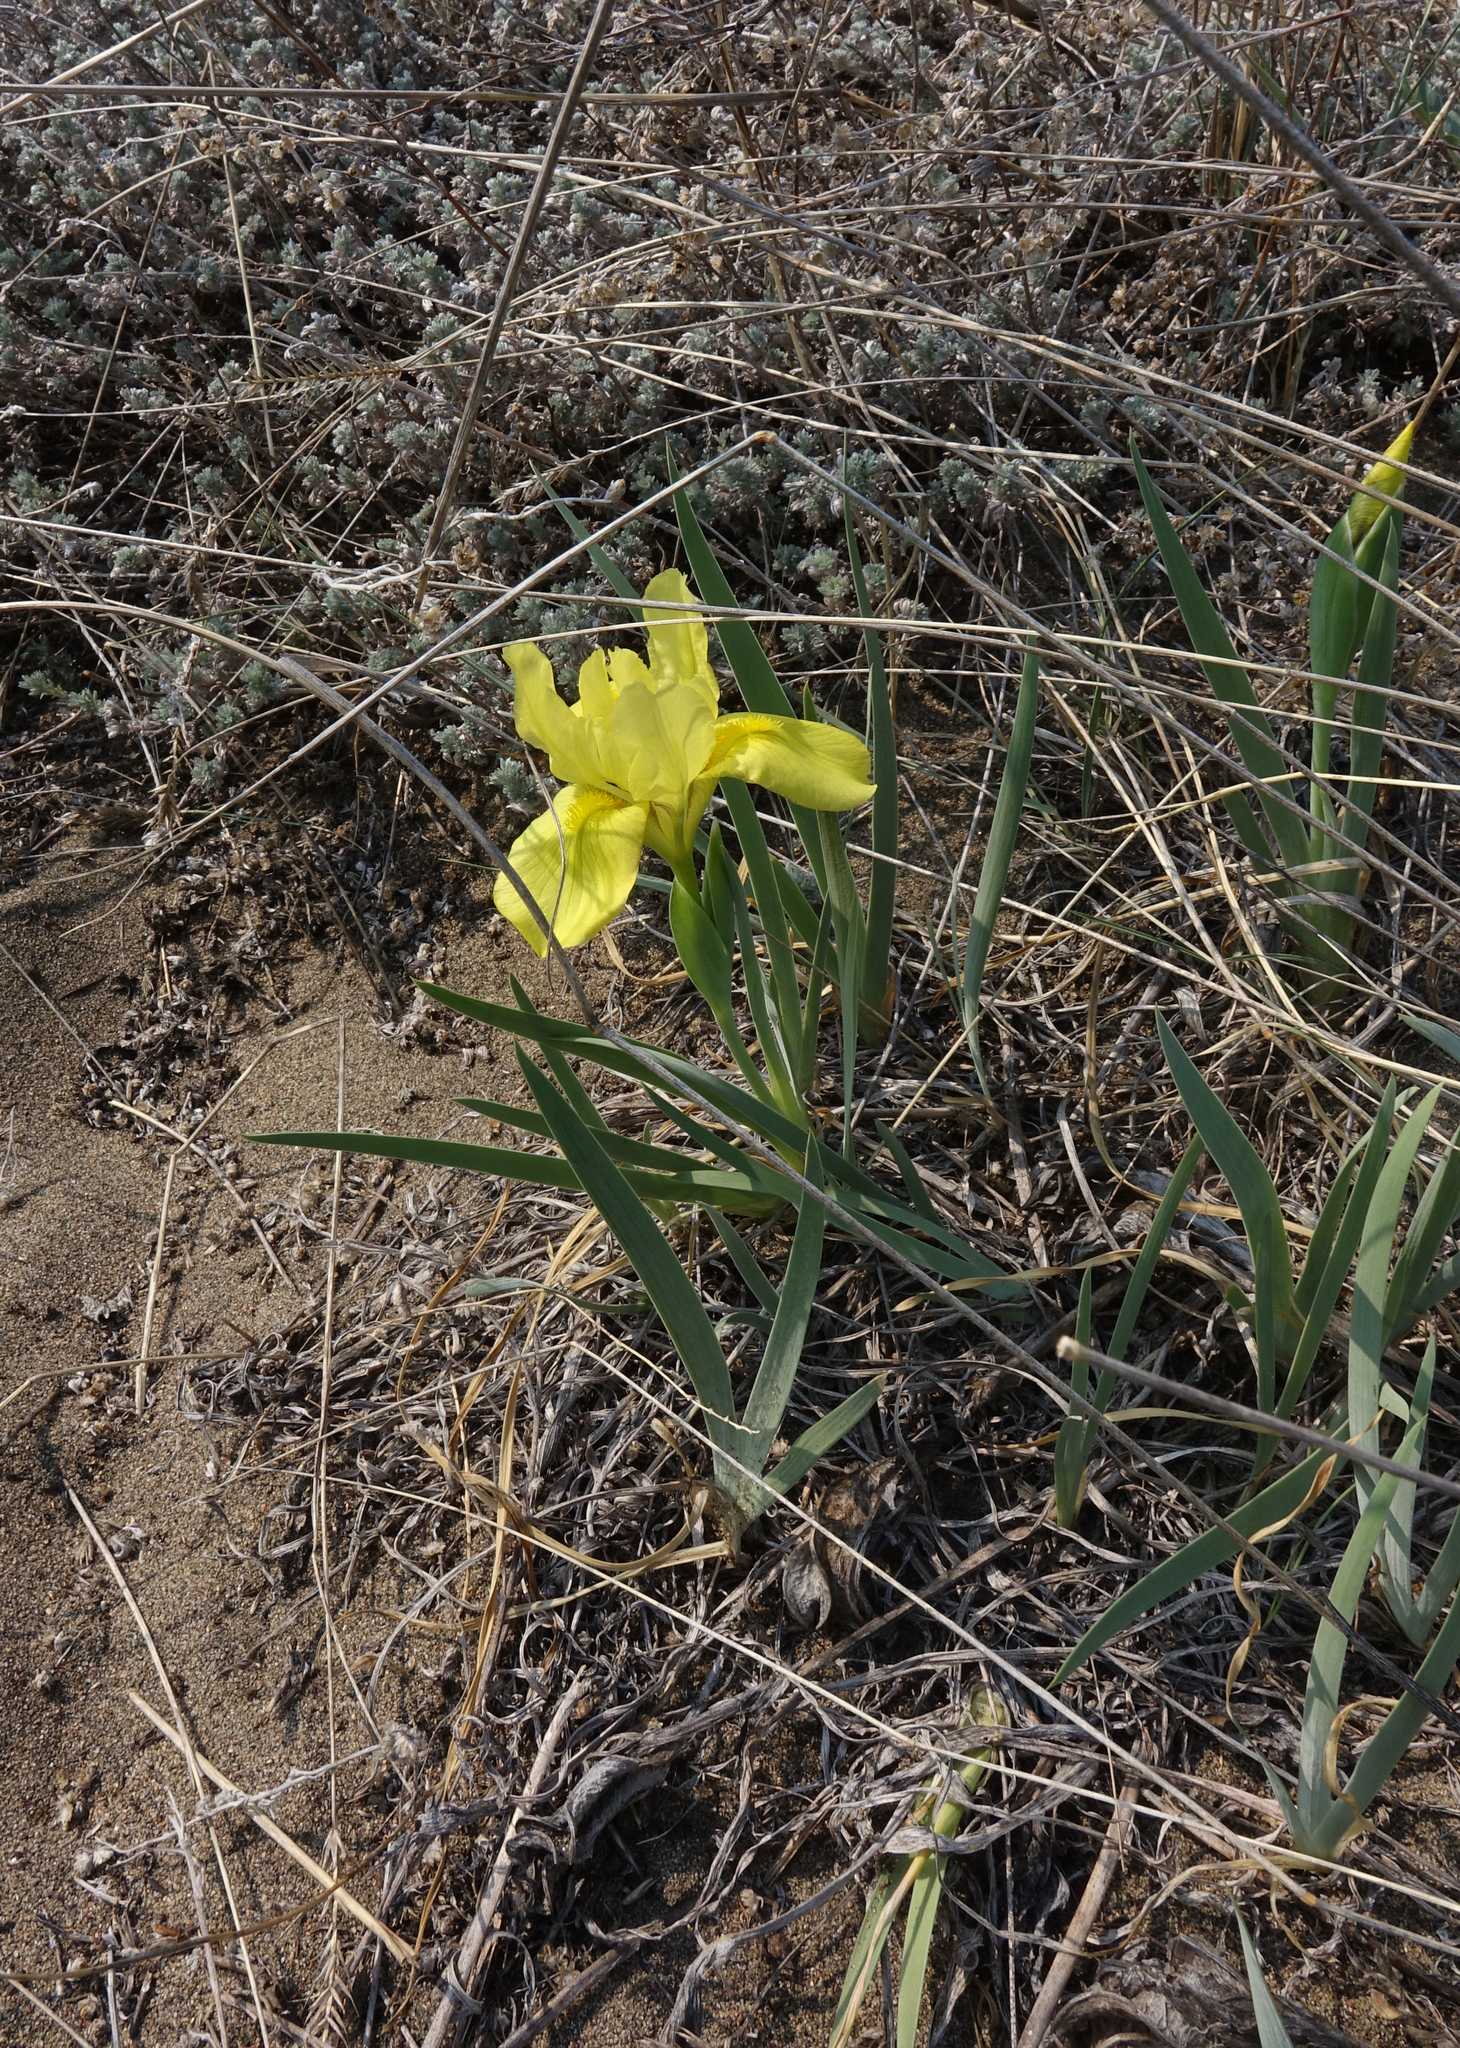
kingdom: Plantae
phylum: Tracheophyta
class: Liliopsida
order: Asparagales
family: Iridaceae
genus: Iris
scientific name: Iris humilis
